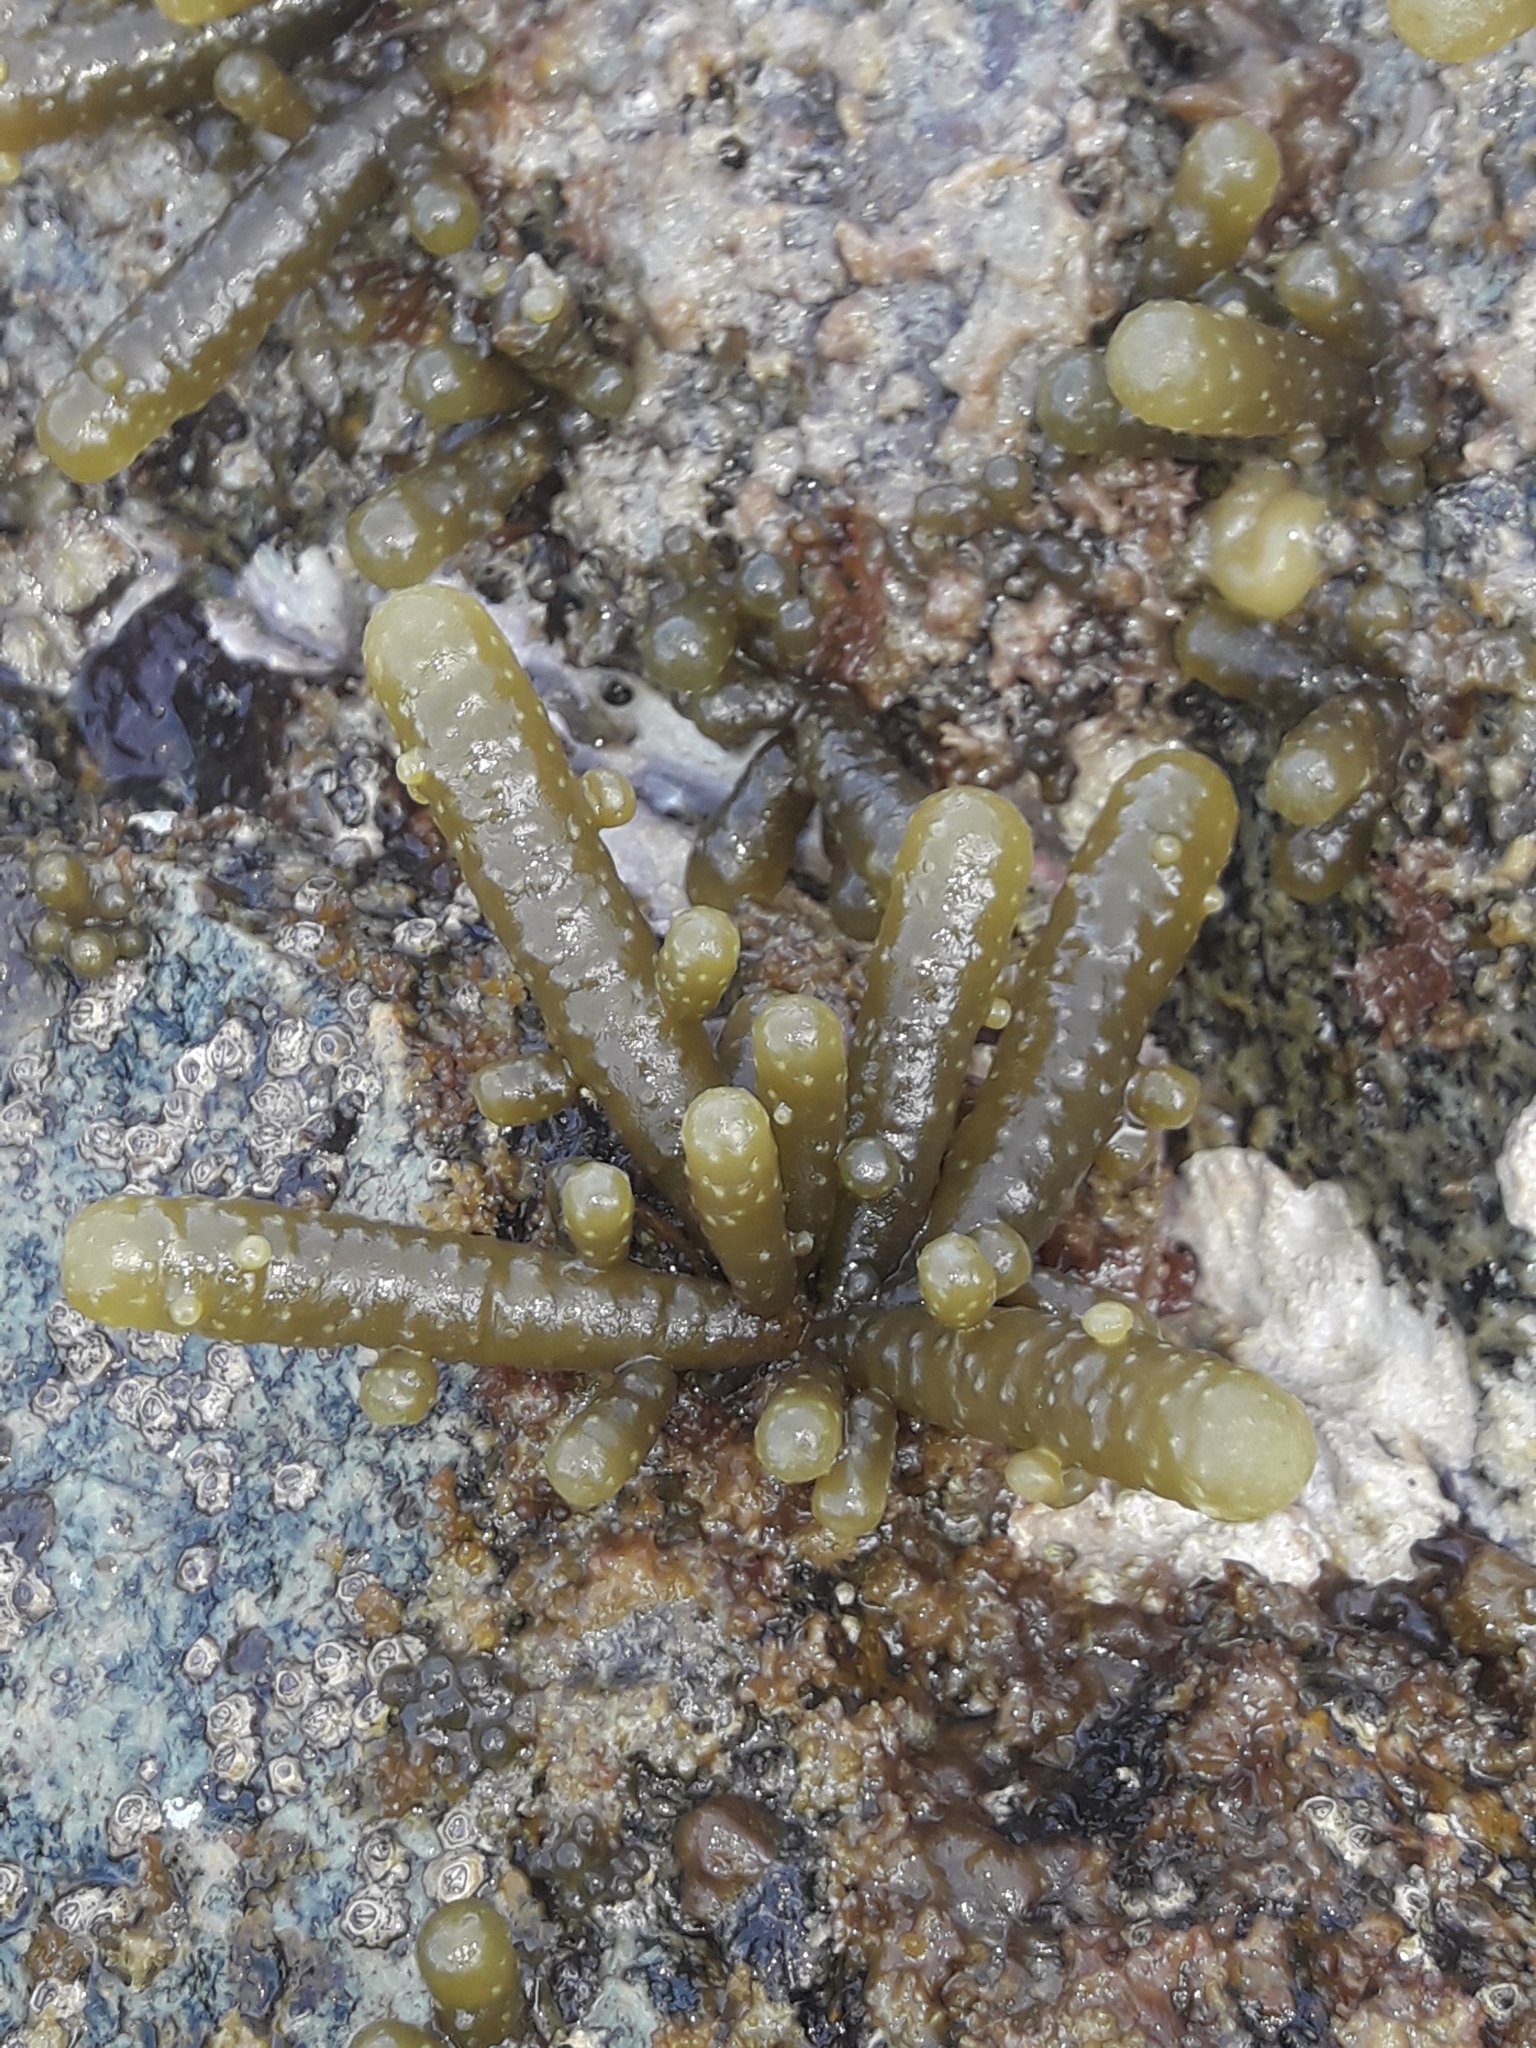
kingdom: Chromista
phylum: Ochrophyta
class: Phaeophyceae
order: Scytothamnales
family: Splachnidiaceae
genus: Splachnidium
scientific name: Splachnidium rugosum
